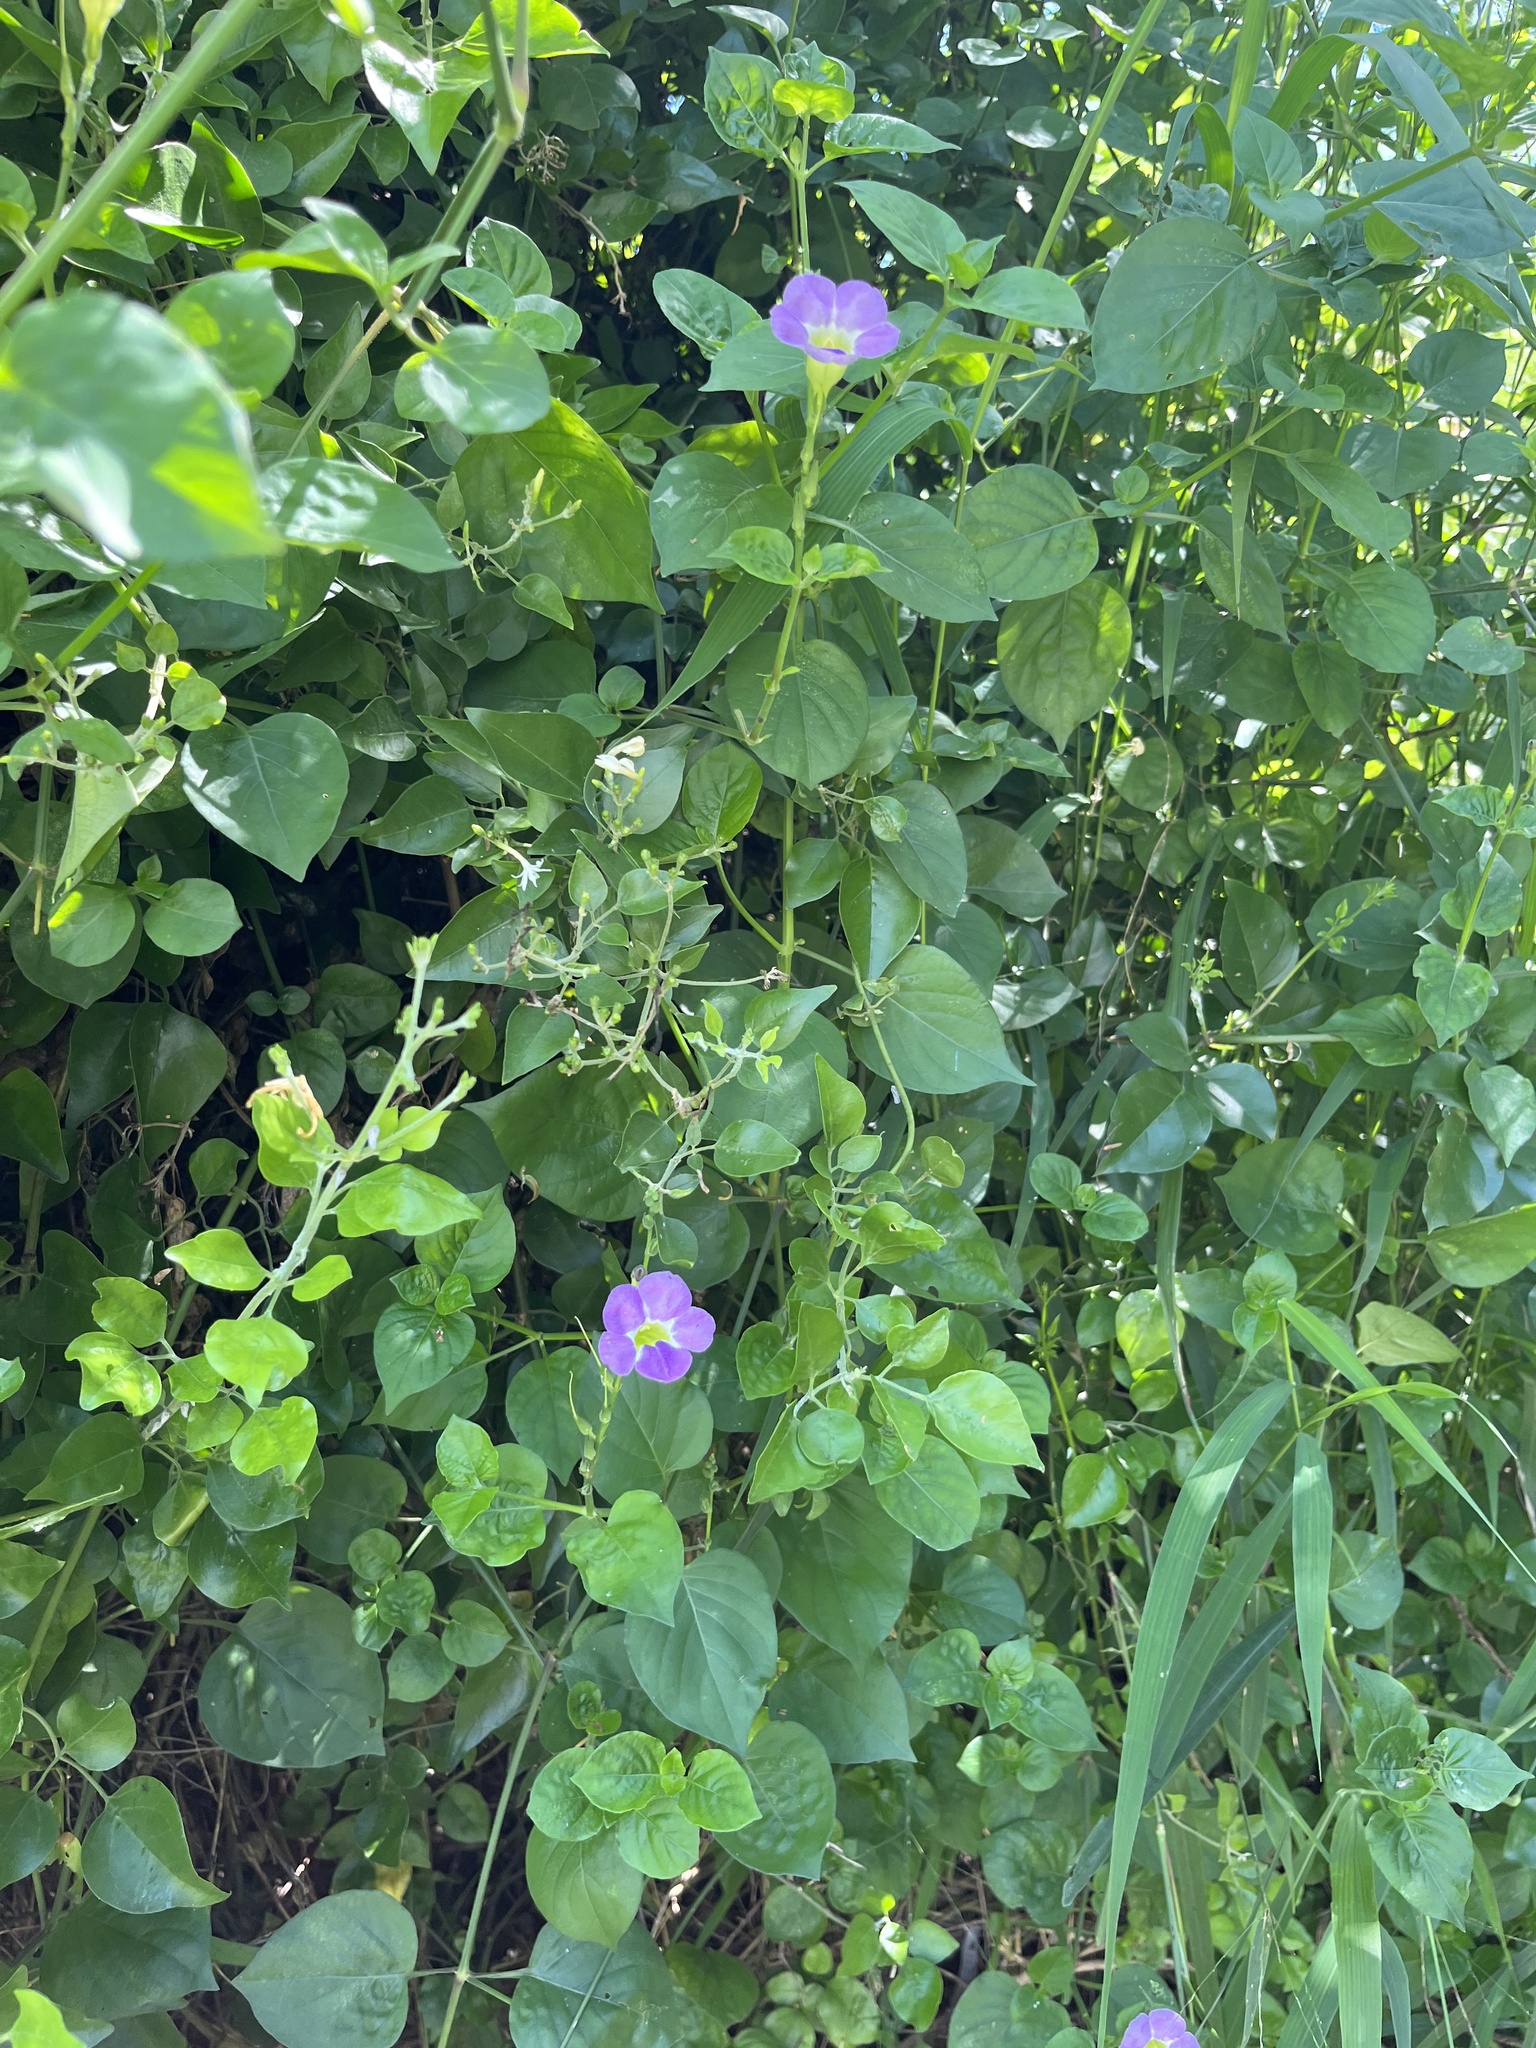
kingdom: Plantae
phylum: Tracheophyta
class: Magnoliopsida
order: Lamiales
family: Acanthaceae
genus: Asystasia
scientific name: Asystasia gangetica
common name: Chinese violet
